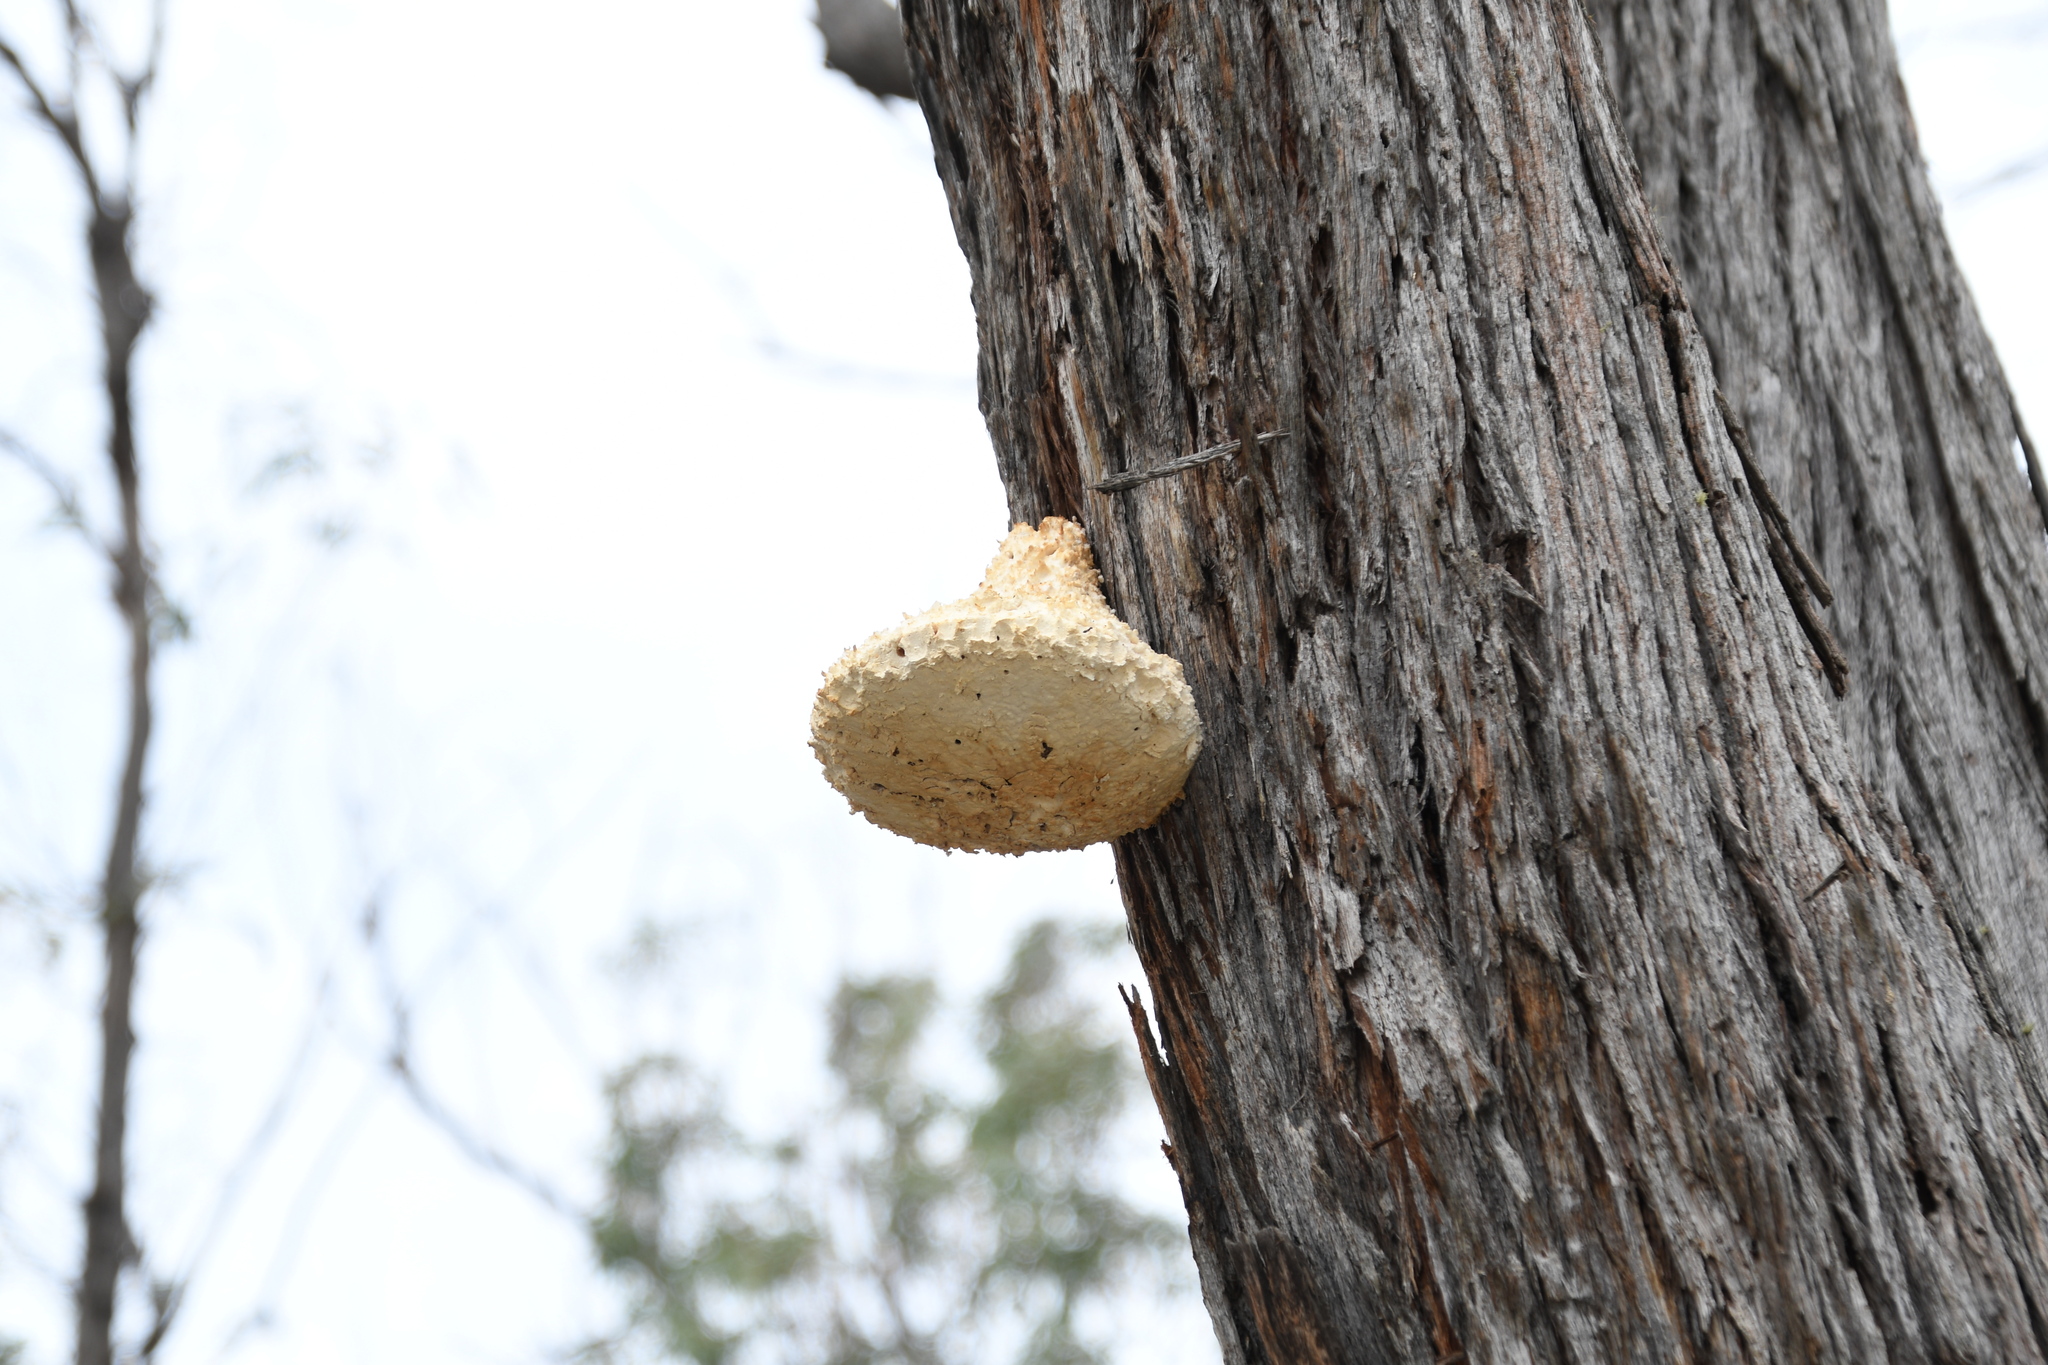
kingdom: Fungi
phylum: Basidiomycota
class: Agaricomycetes
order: Polyporales
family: Laetiporaceae
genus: Laetiporus
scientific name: Laetiporus portentosus
